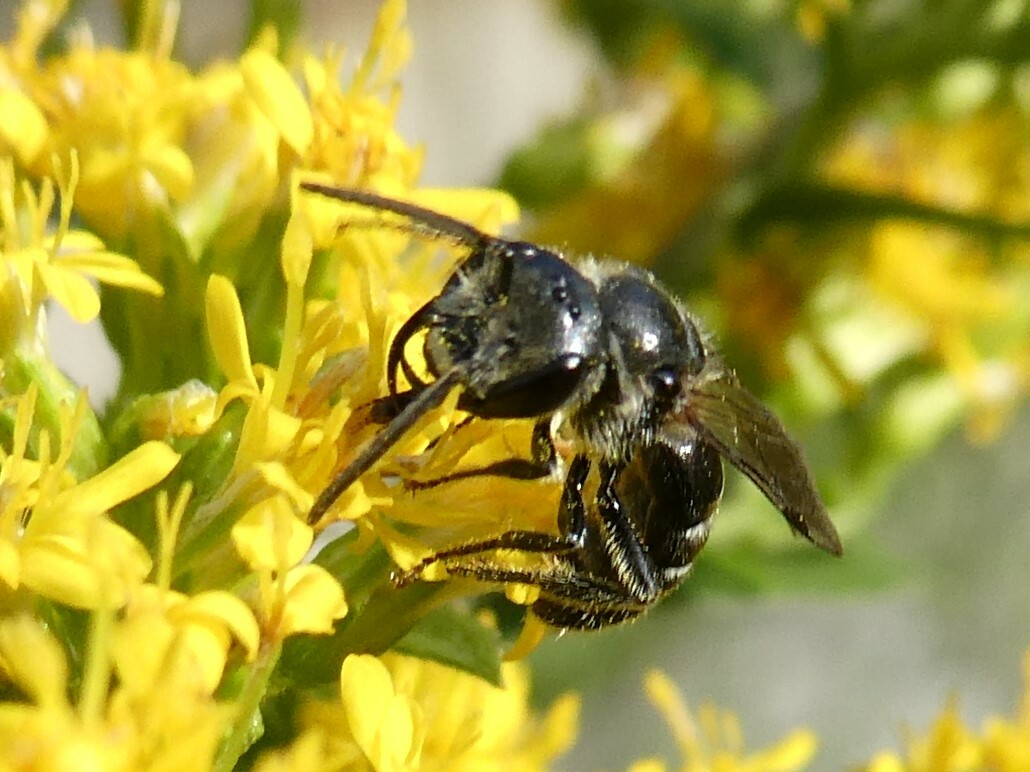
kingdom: Animalia
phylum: Arthropoda
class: Insecta
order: Hymenoptera
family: Halictidae
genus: Lasioglossum
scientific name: Lasioglossum coriaceum
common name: Leathery sweat bee
